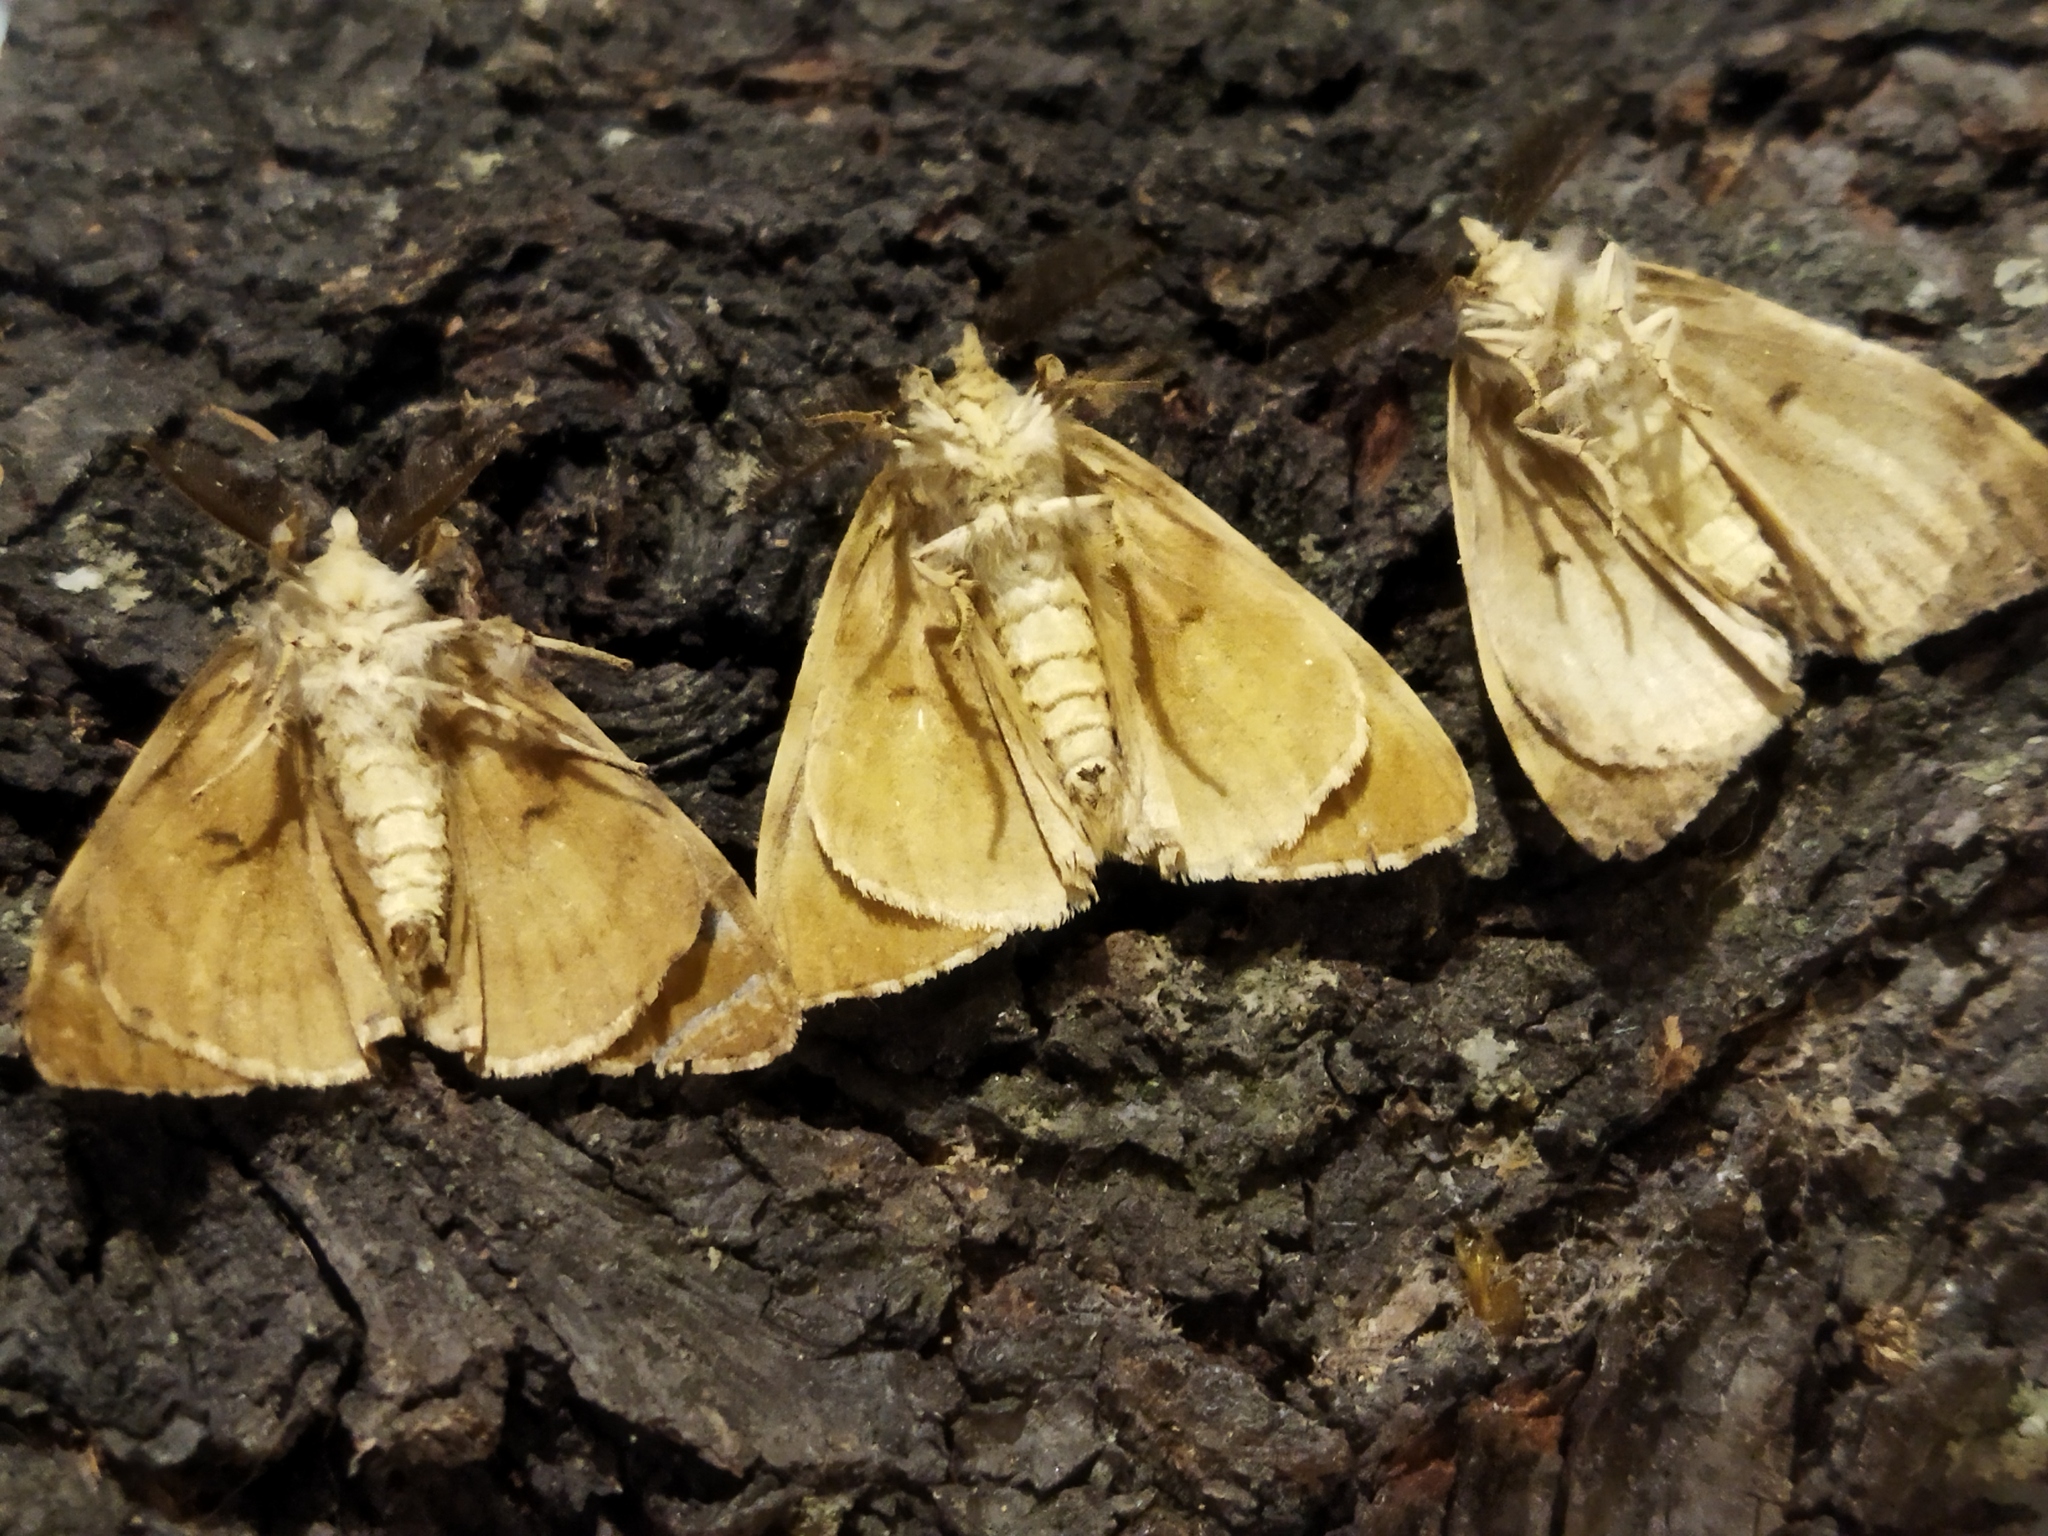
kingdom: Animalia
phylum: Arthropoda
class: Insecta
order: Lepidoptera
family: Erebidae
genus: Lymantria
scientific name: Lymantria dispar
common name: Gypsy moth
